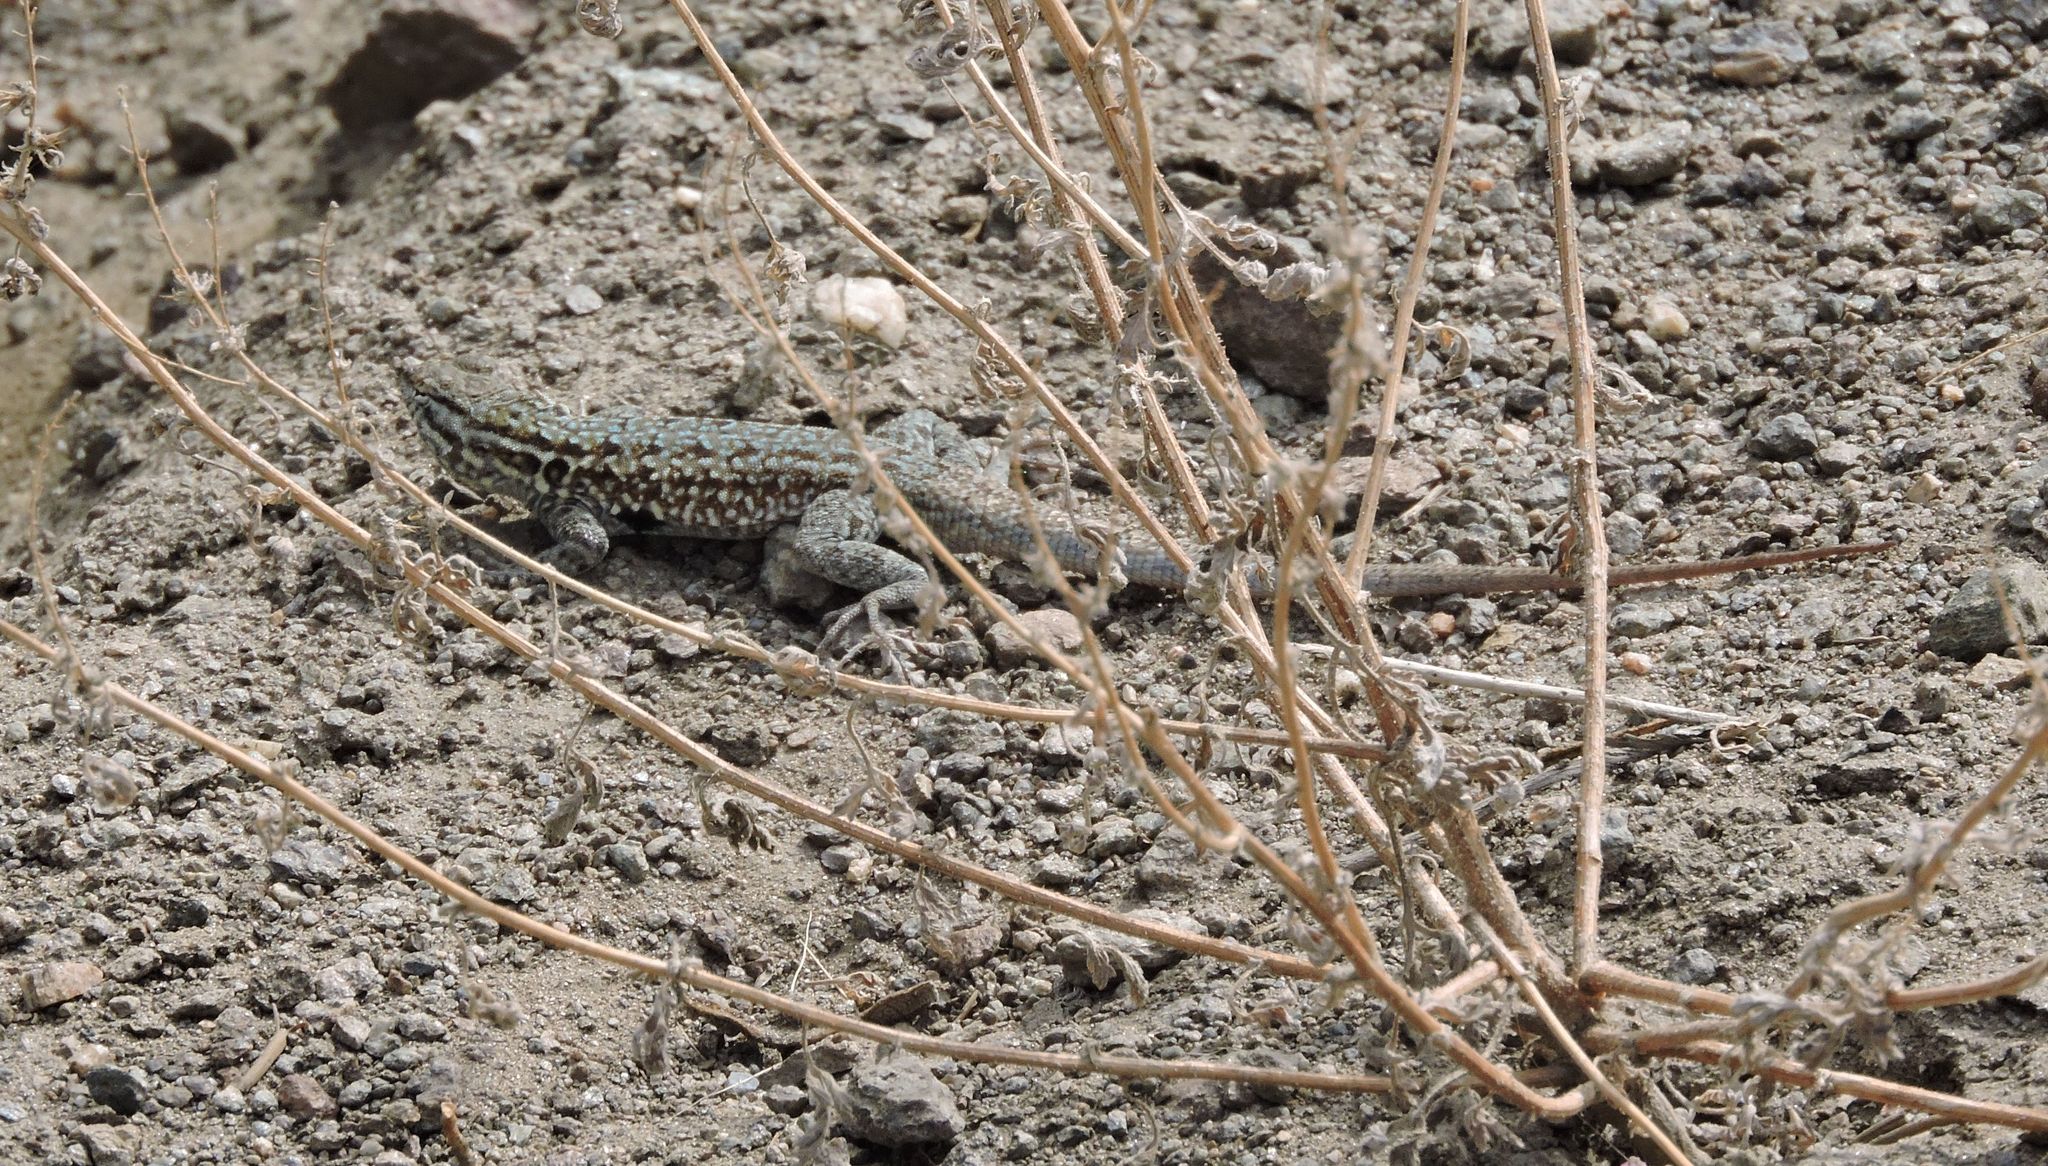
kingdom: Animalia
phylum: Chordata
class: Squamata
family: Phrynosomatidae
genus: Uta
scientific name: Uta stansburiana
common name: Side-blotched lizard
